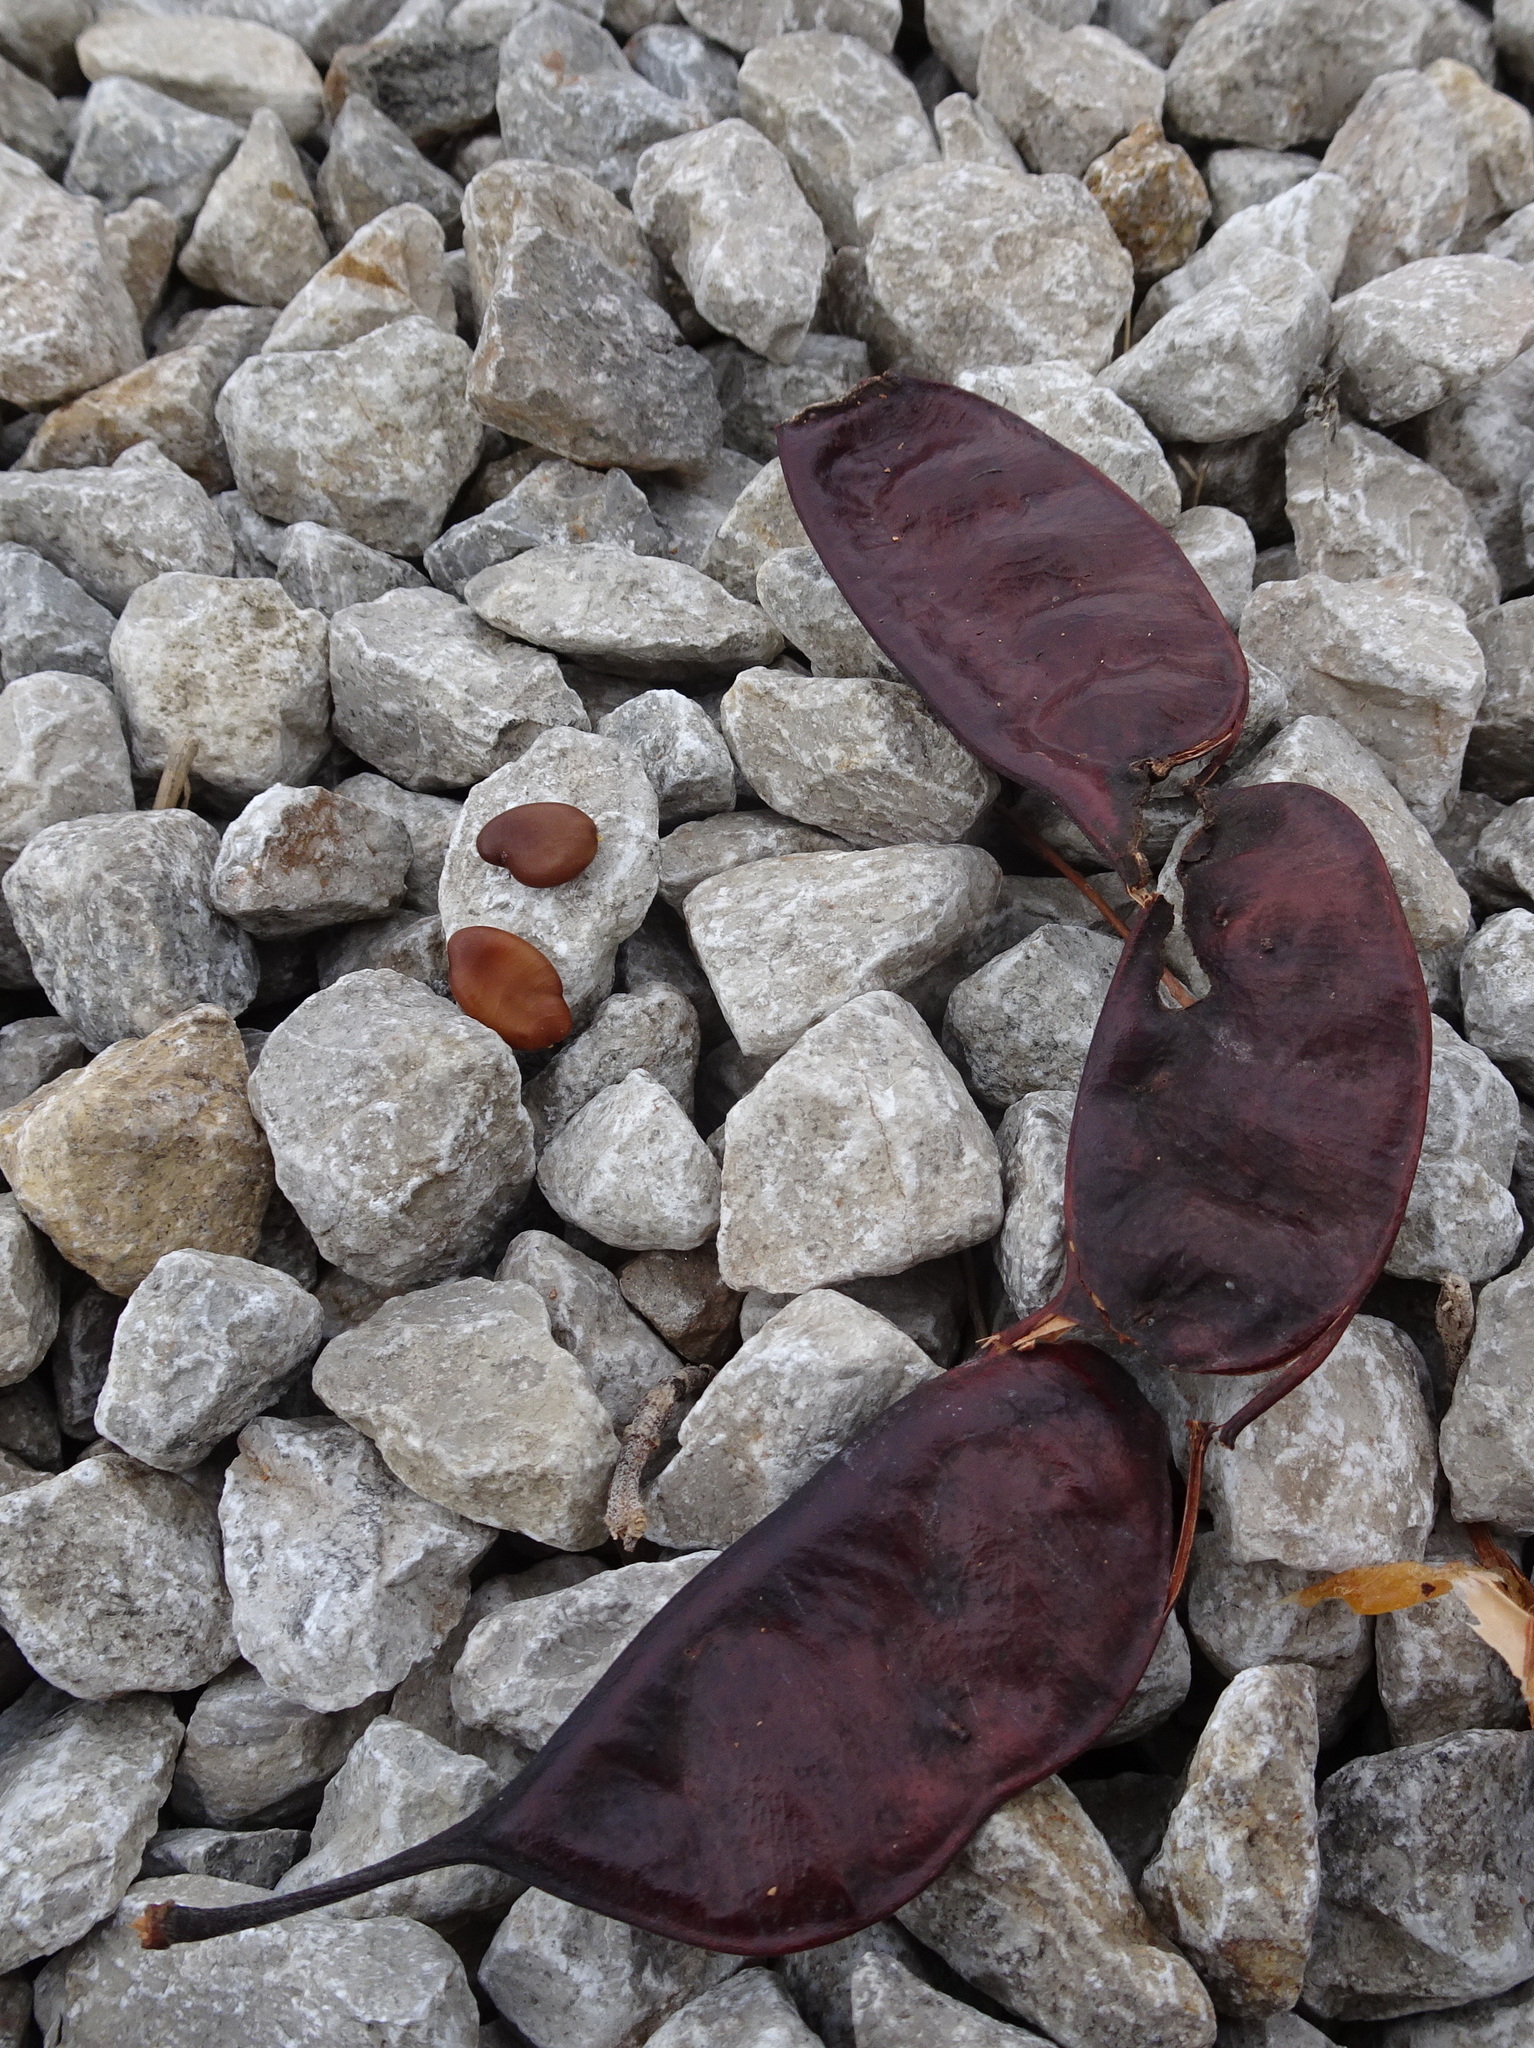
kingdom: Plantae
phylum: Tracheophyta
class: Magnoliopsida
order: Fabales
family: Fabaceae
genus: Gymnocladus
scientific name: Gymnocladus dioicus
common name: Kentucky coffee-tree
